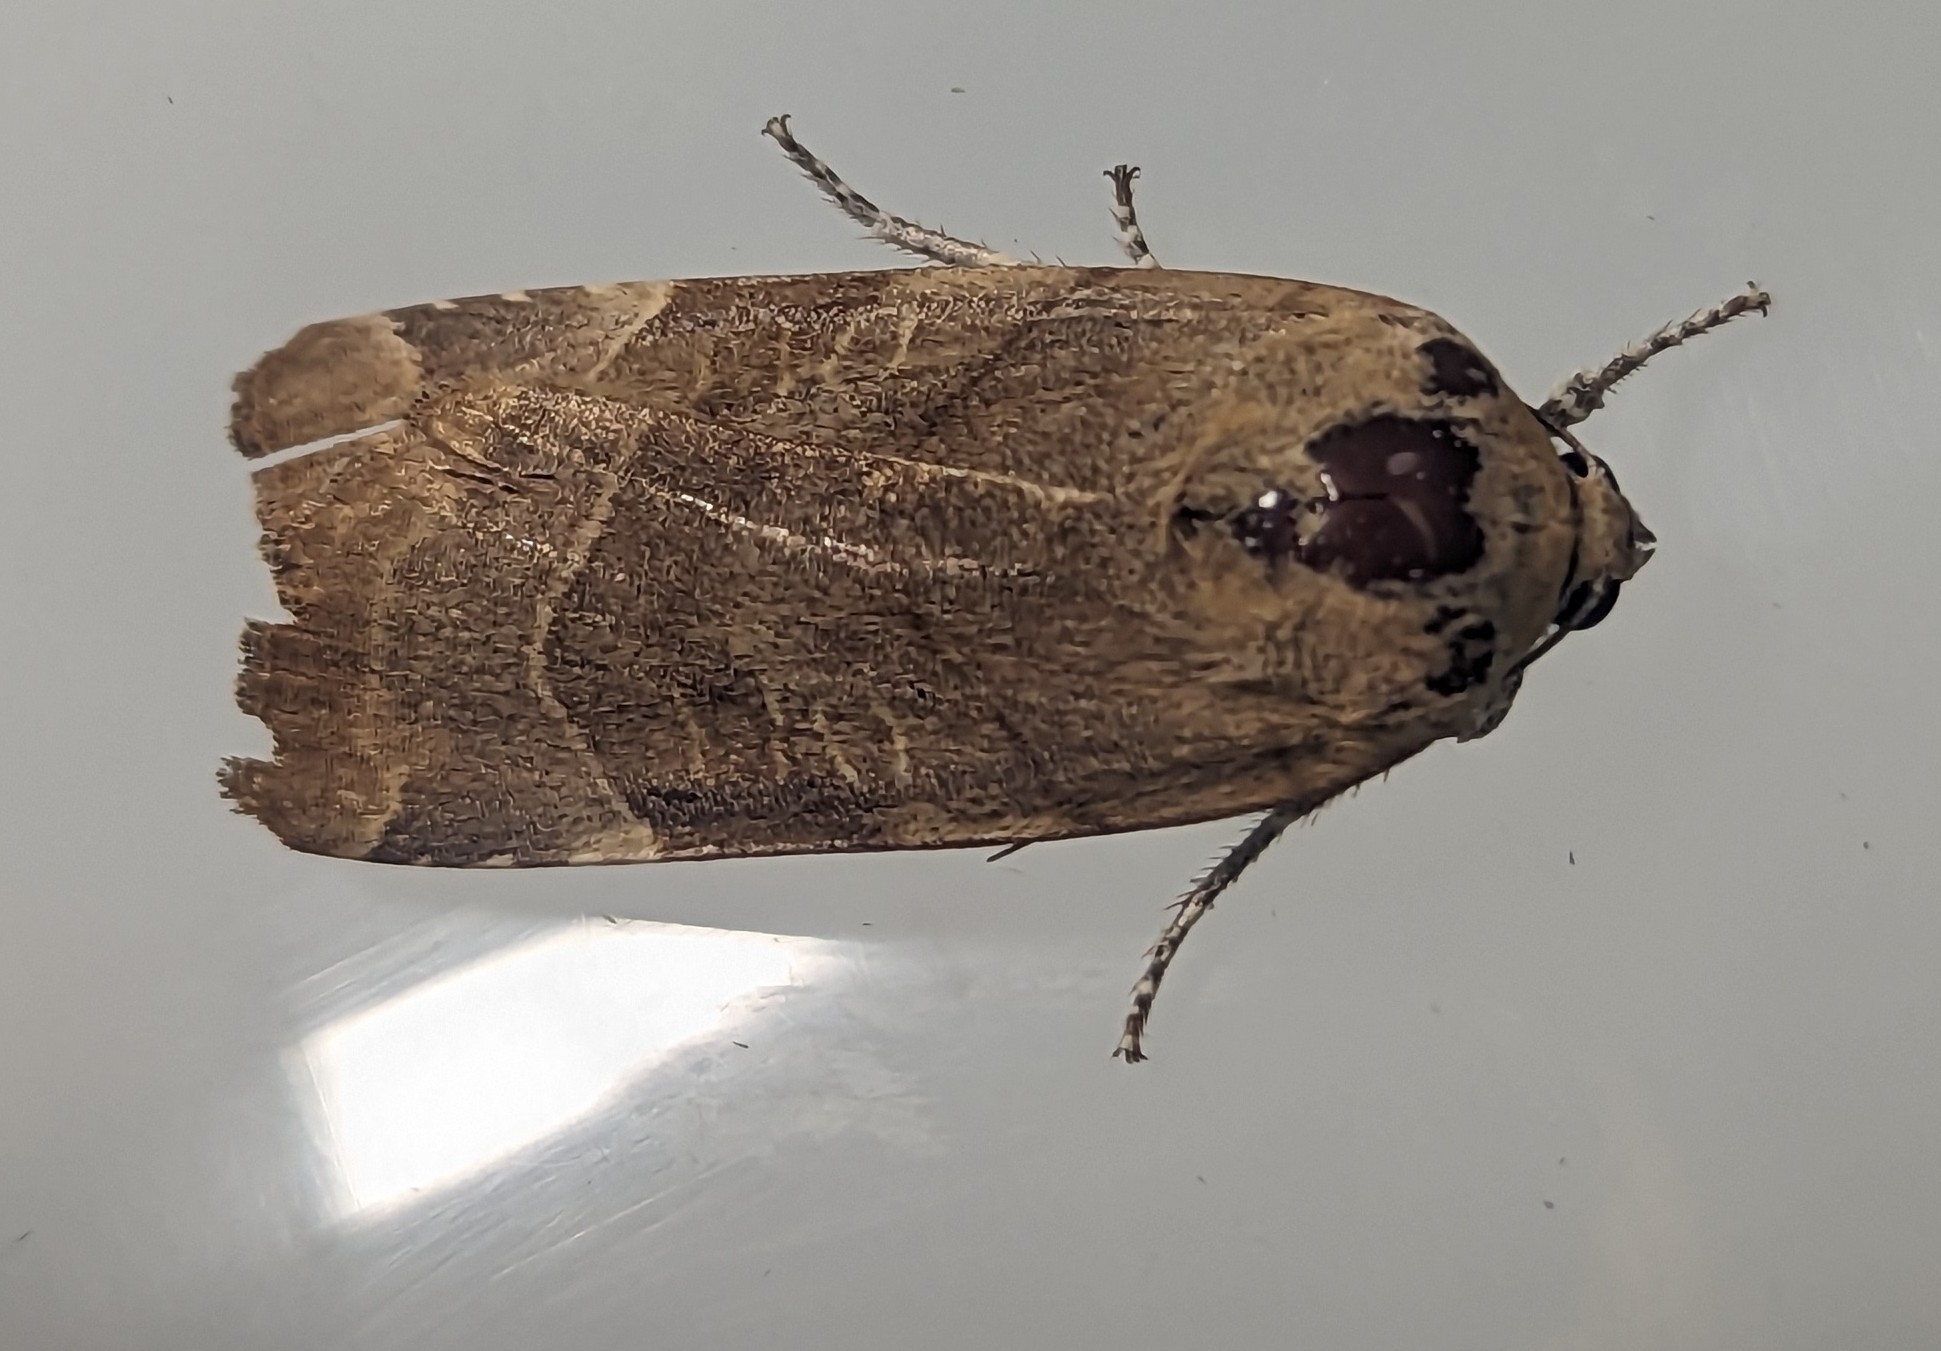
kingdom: Animalia
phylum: Arthropoda
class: Insecta
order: Lepidoptera
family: Noctuidae
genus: Noctua
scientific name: Noctua fimbriata
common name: Broad-bordered yellow underwing
